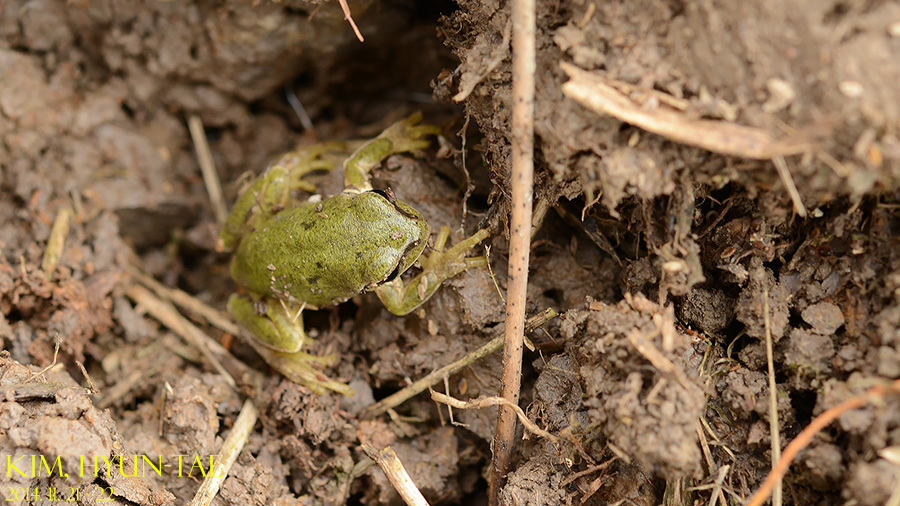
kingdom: Animalia
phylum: Chordata
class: Amphibia
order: Anura
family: Hylidae
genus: Hyla
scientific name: Hyla
